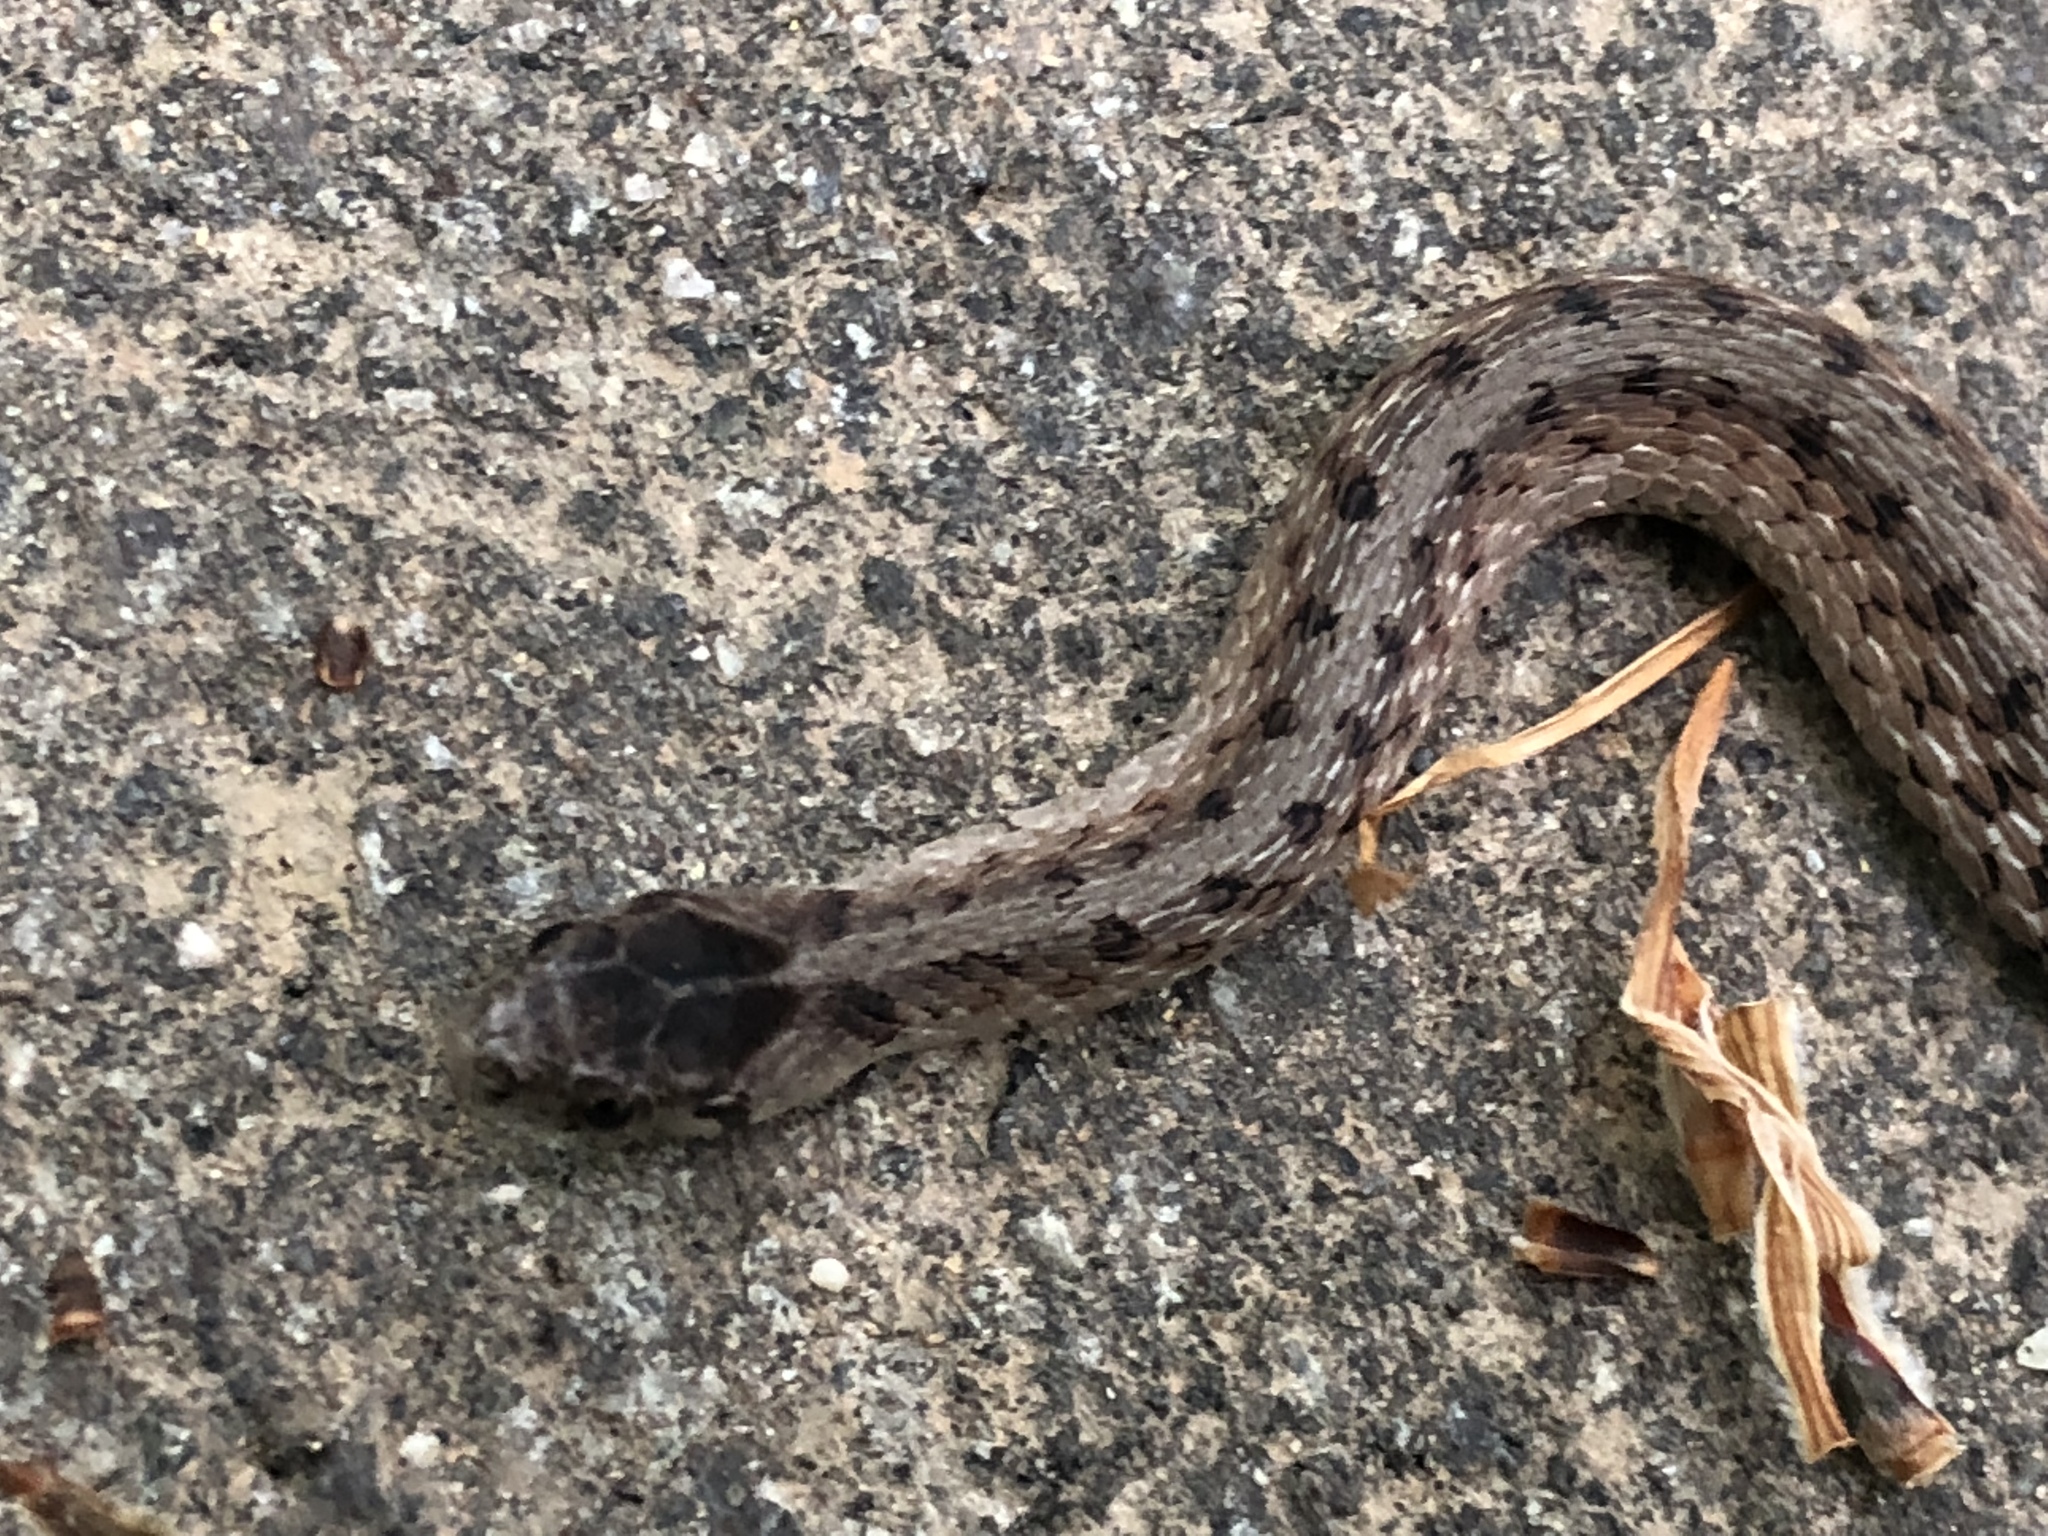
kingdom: Animalia
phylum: Chordata
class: Squamata
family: Colubridae
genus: Storeria
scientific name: Storeria dekayi
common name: (dekay’s) brown snake
